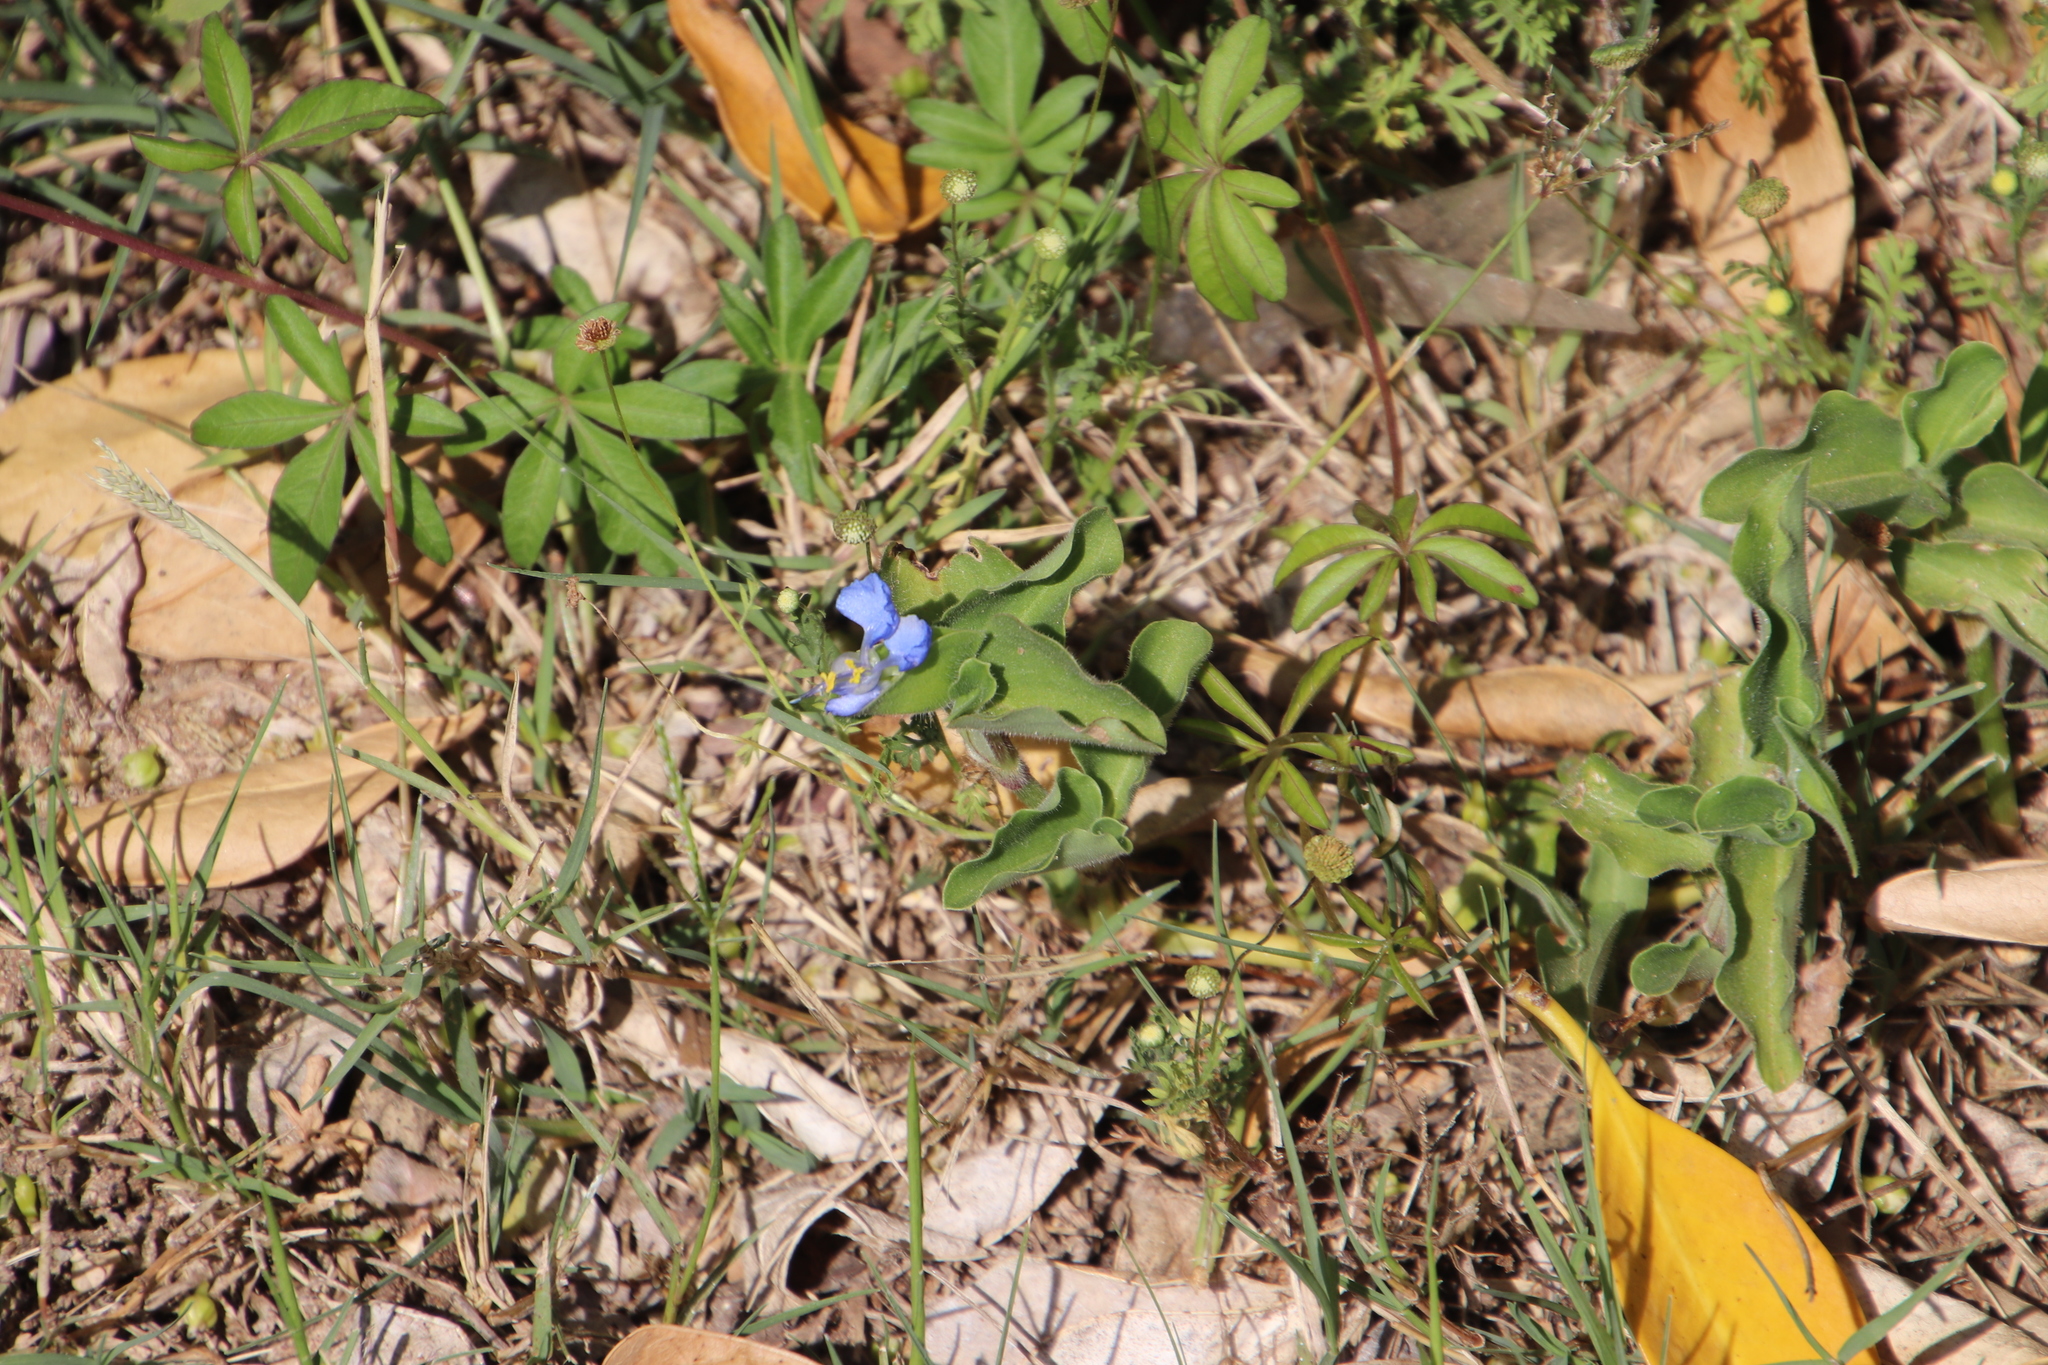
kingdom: Plantae
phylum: Tracheophyta
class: Liliopsida
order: Commelinales
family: Commelinaceae
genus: Commelina
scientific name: Commelina benghalensis
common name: Jio
